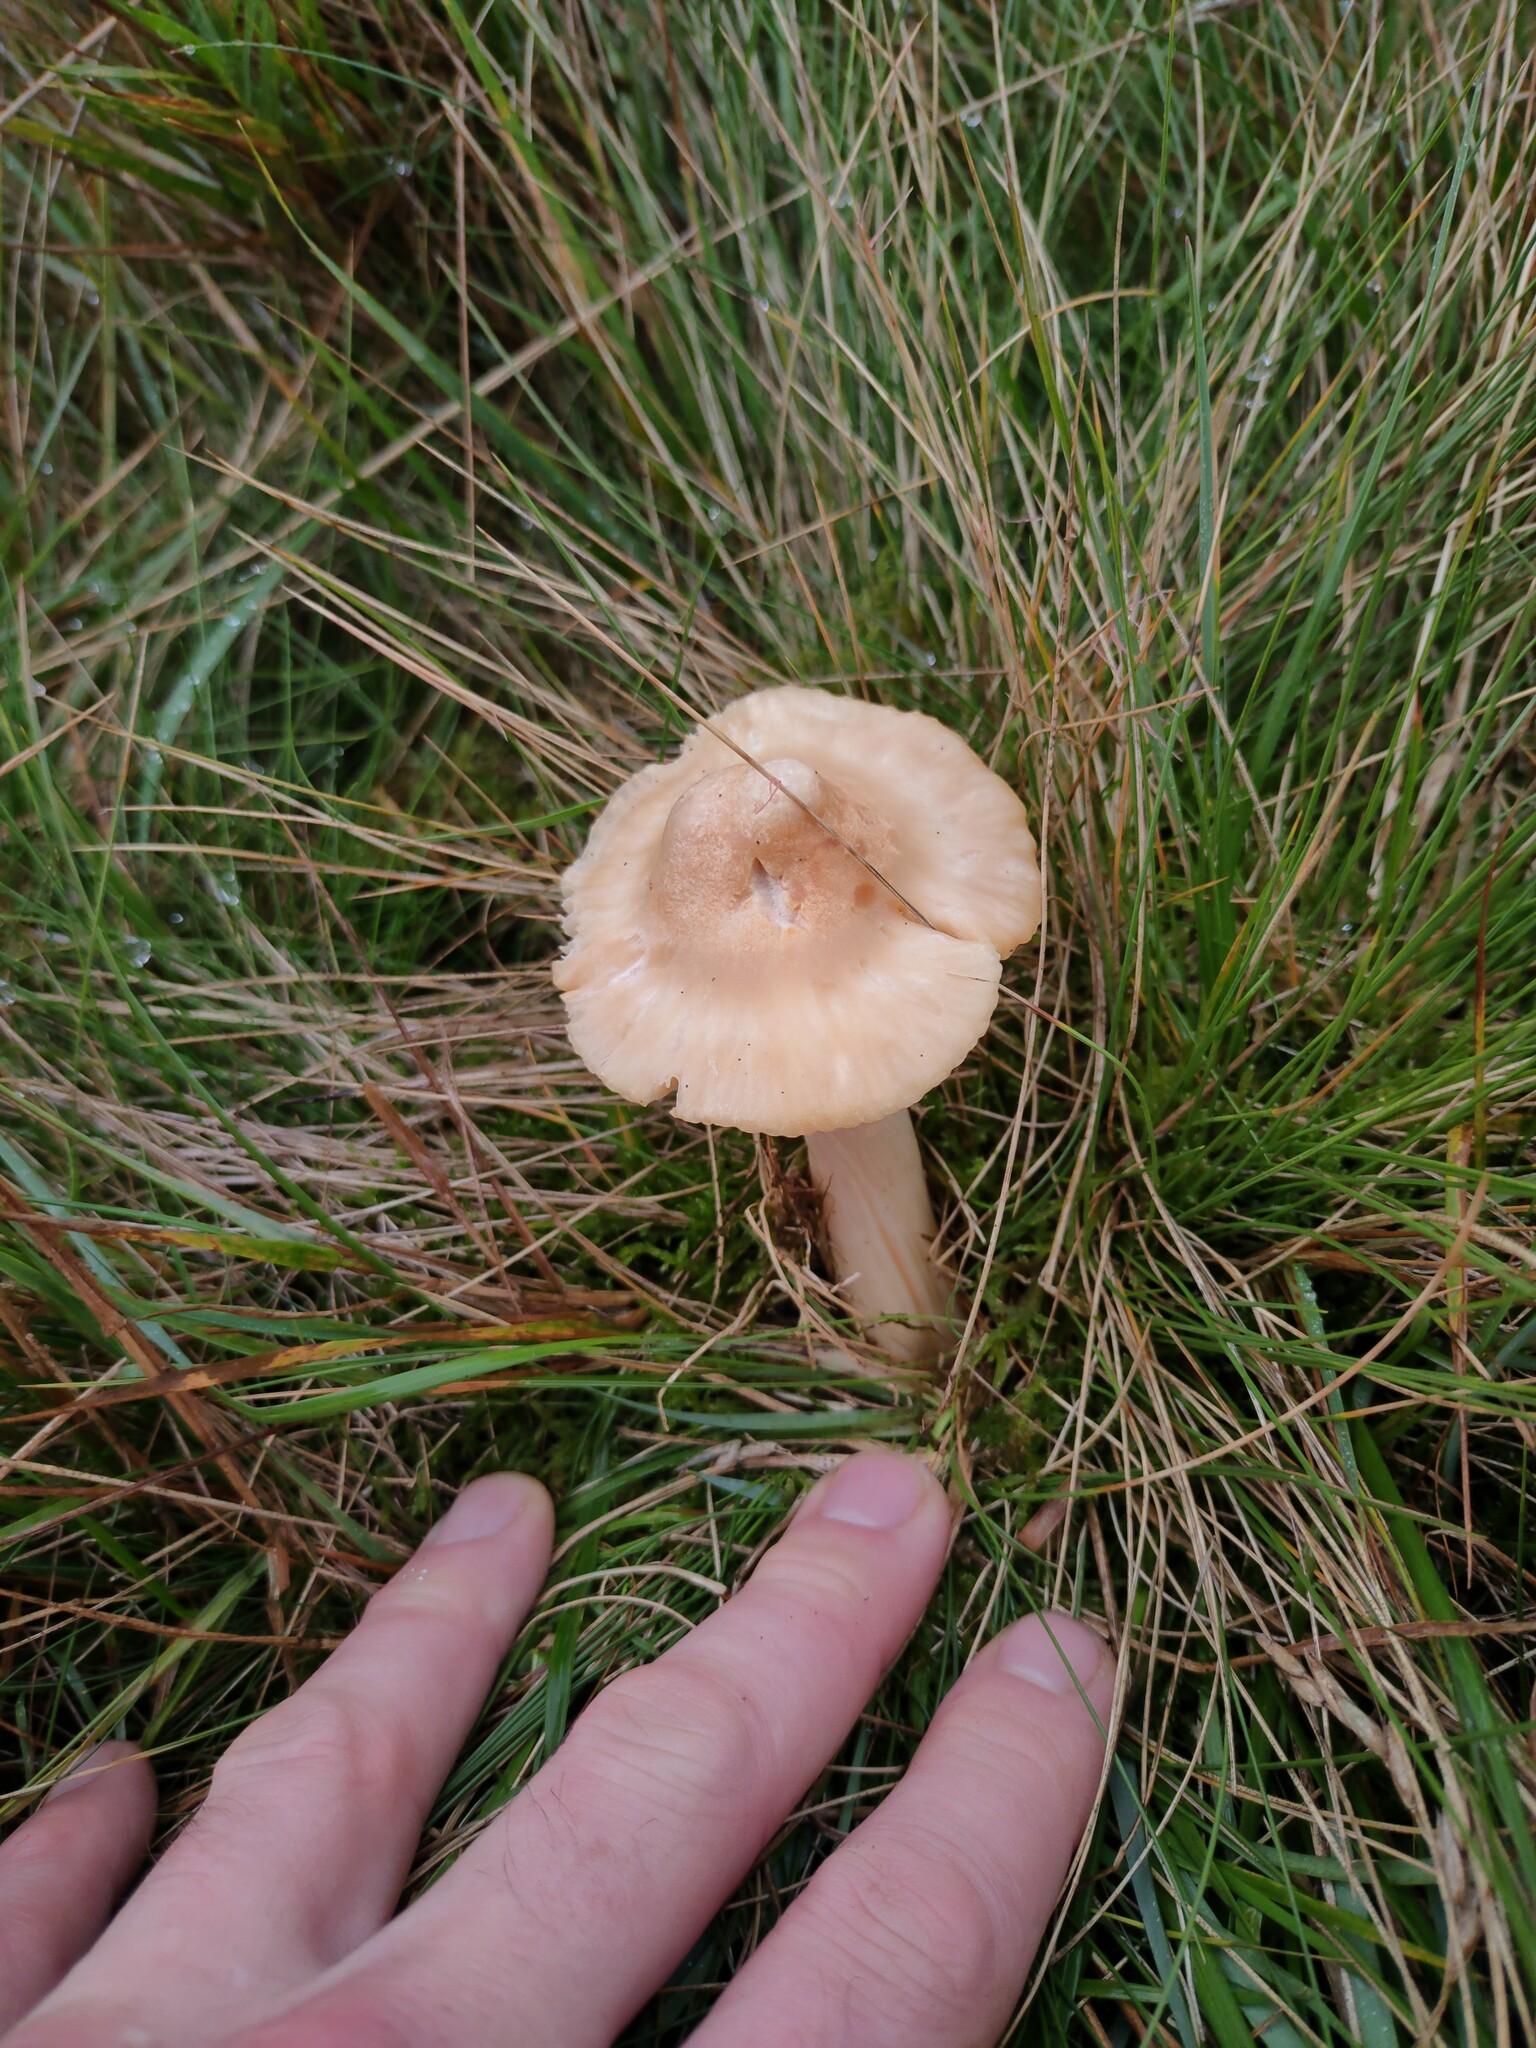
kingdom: Fungi
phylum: Basidiomycota
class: Agaricomycetes
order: Agaricales
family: Hygrophoraceae
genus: Cuphophyllus
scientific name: Cuphophyllus pratensis
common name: Meadow waxcap
